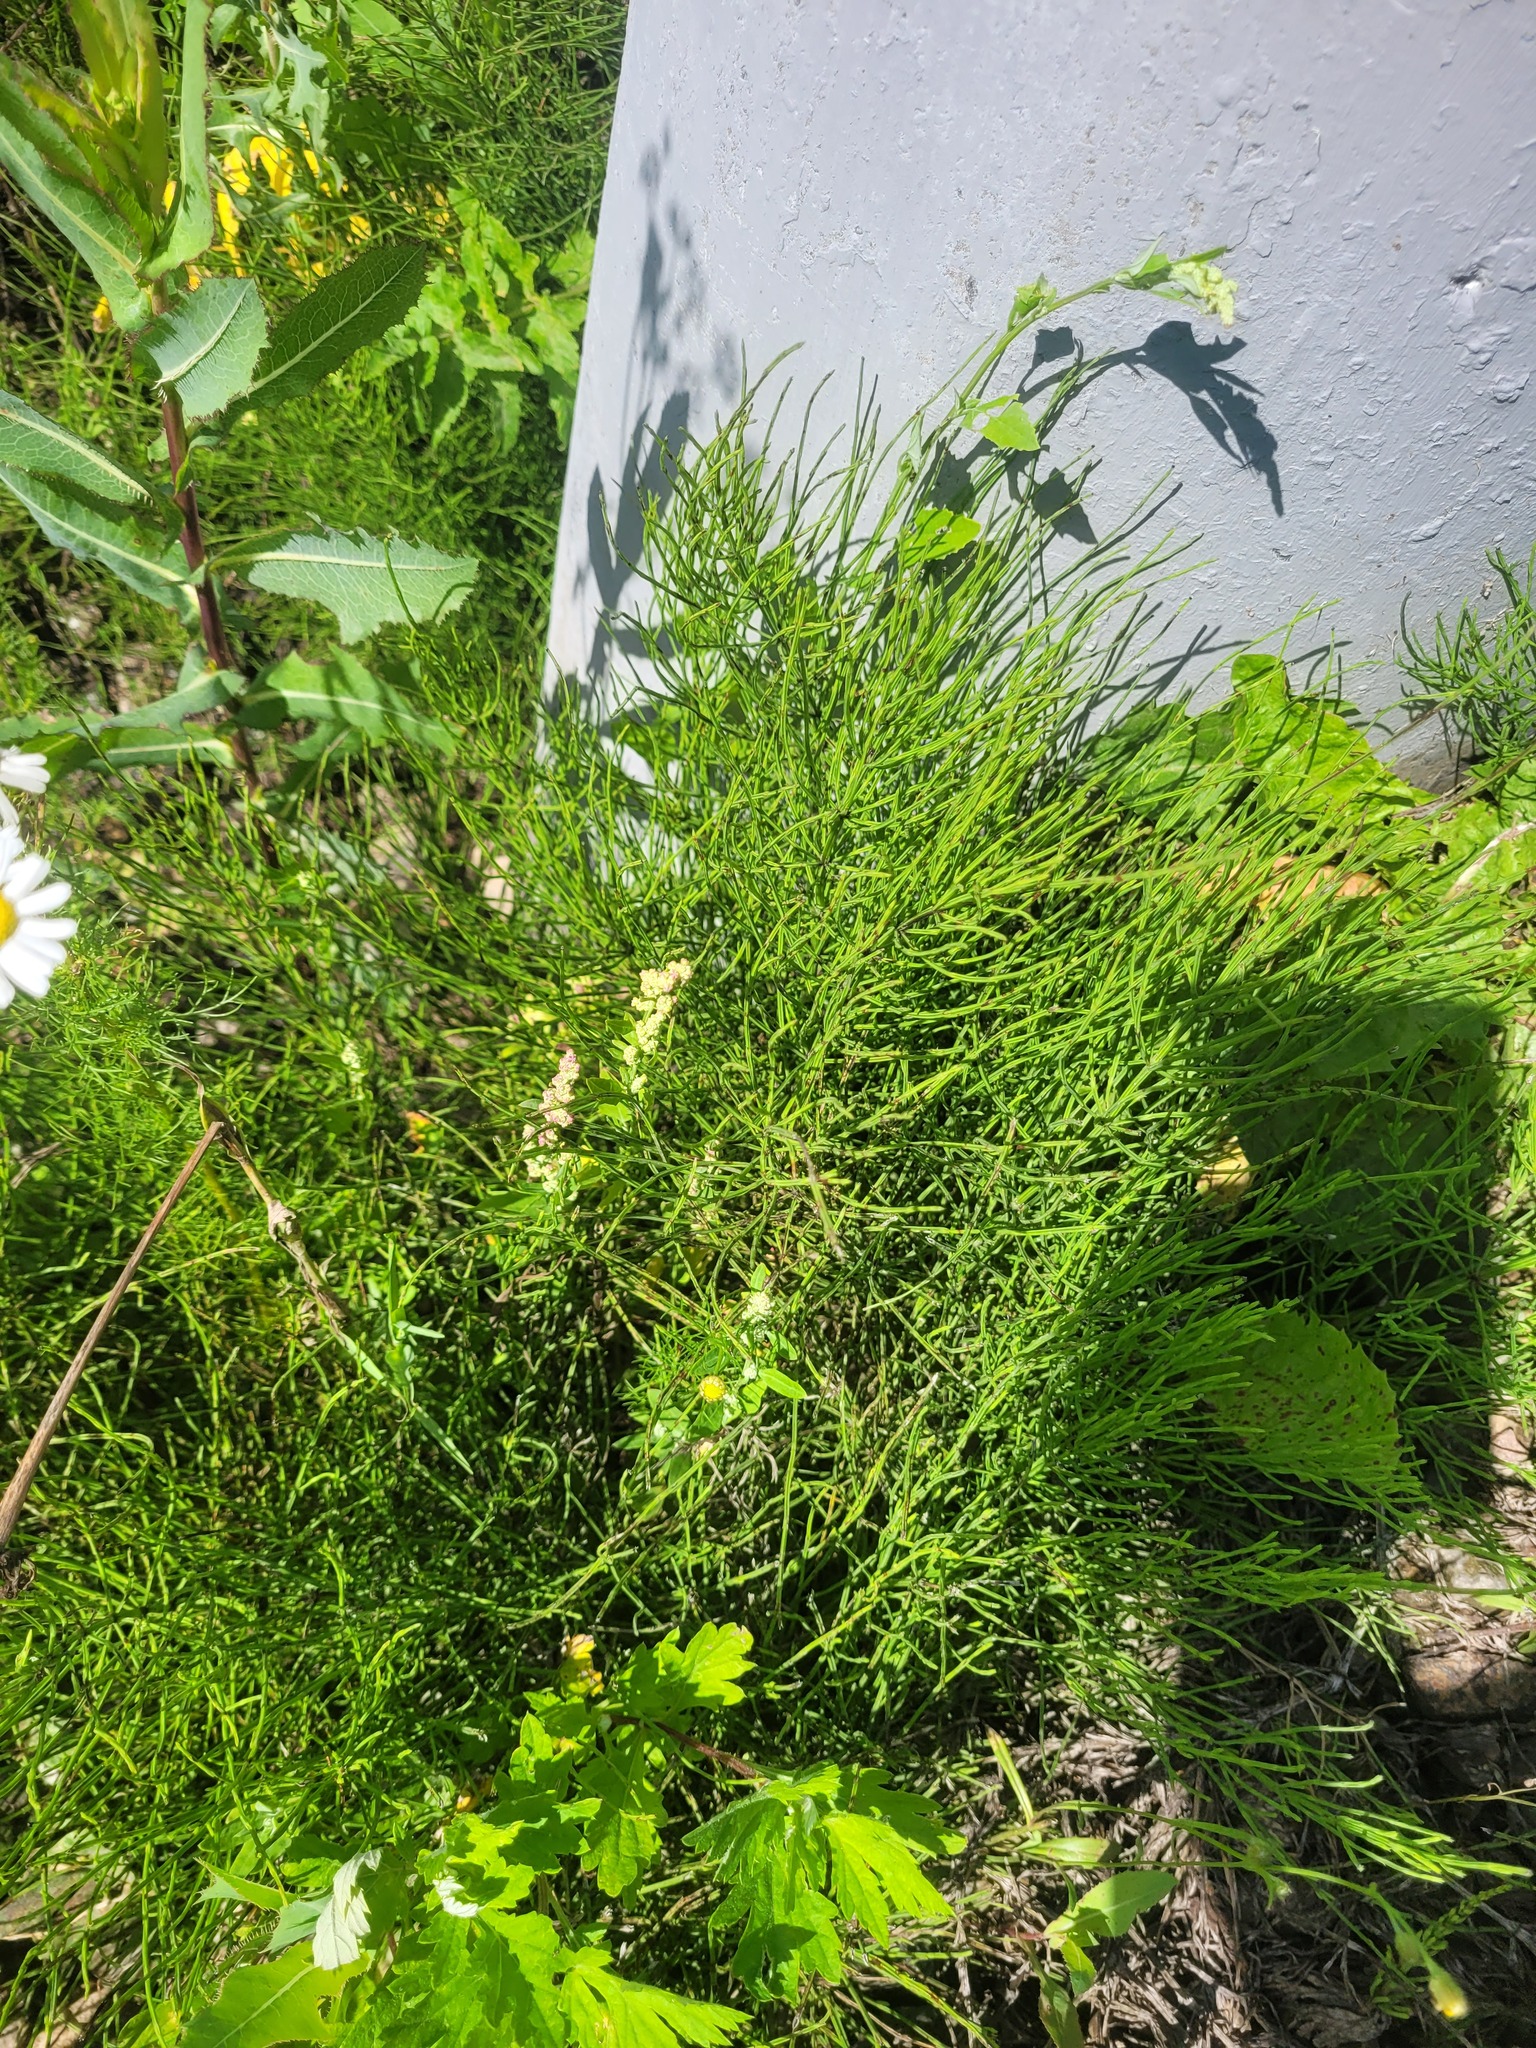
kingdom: Plantae
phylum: Tracheophyta
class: Magnoliopsida
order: Caryophyllales
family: Amaranthaceae
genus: Chenopodium
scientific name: Chenopodium album
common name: Fat-hen
